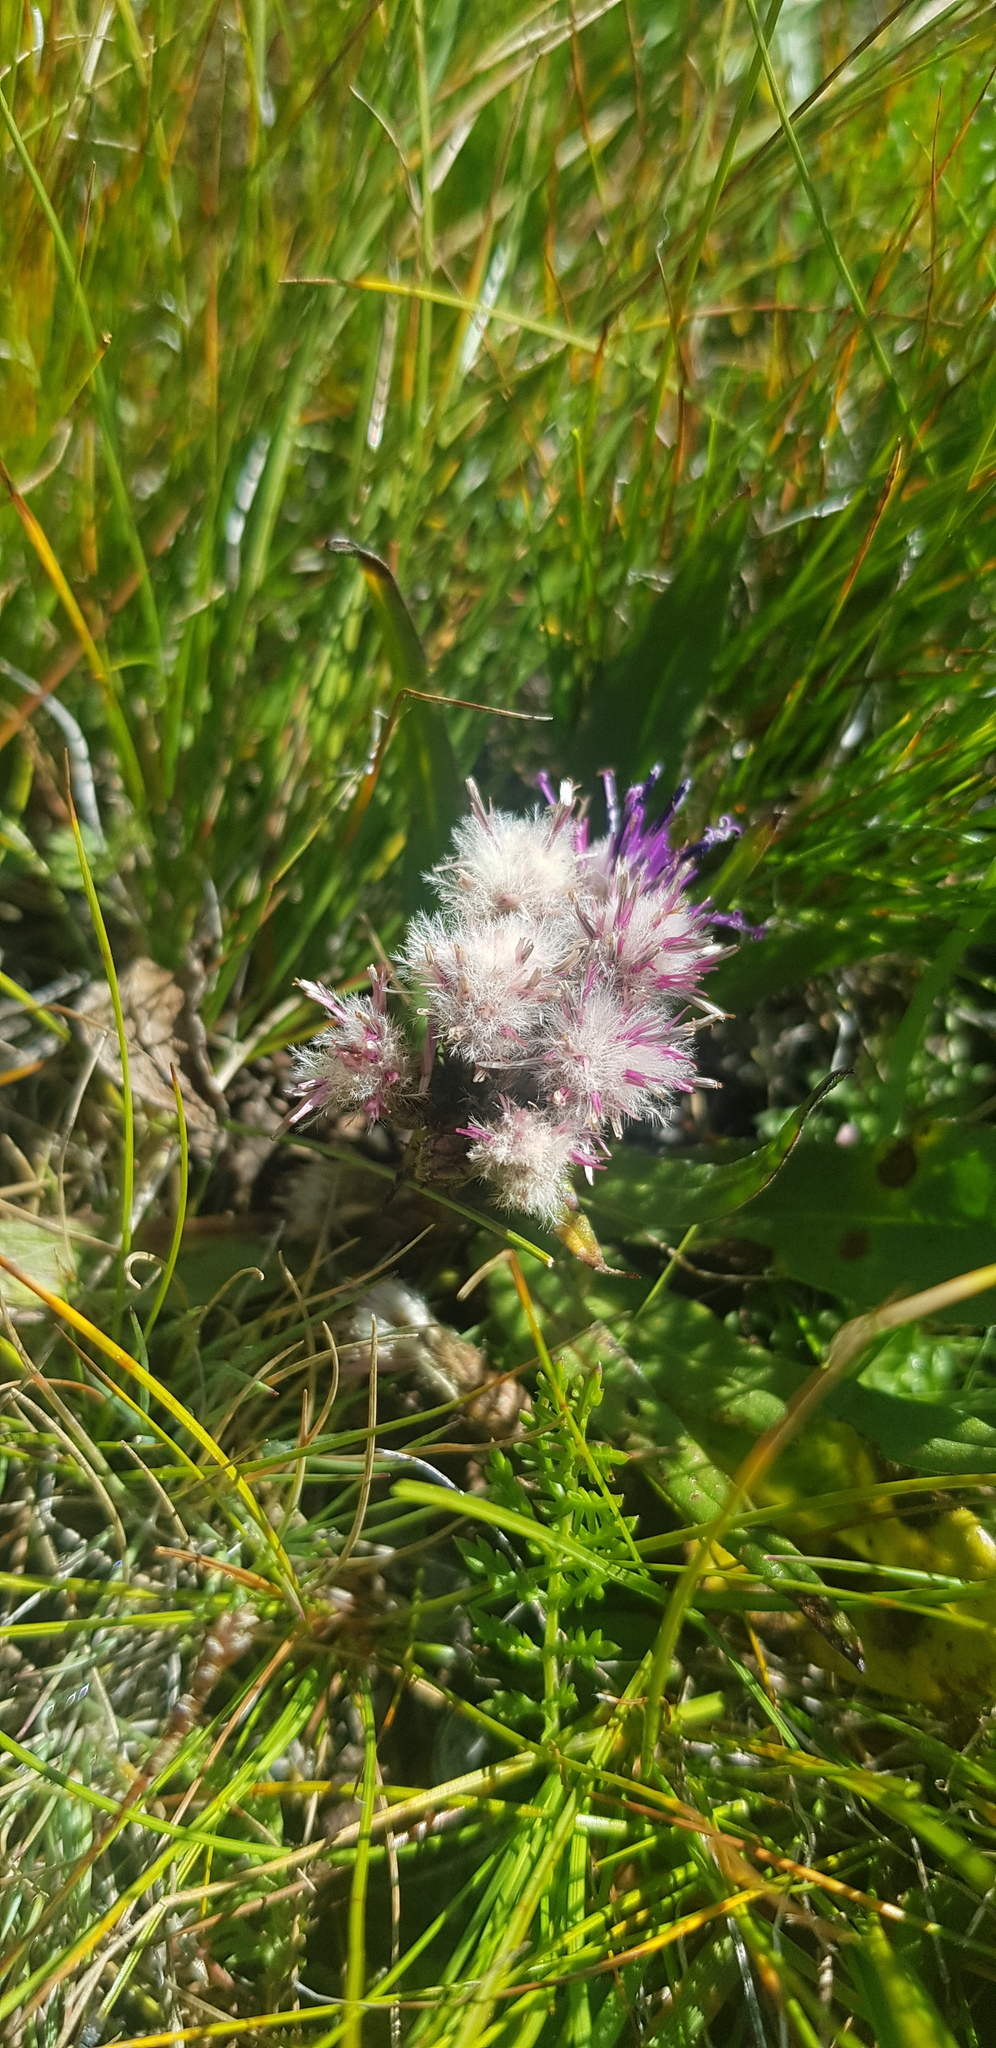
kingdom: Plantae
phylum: Tracheophyta
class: Magnoliopsida
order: Asterales
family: Asteraceae
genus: Saussurea
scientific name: Saussurea alpina
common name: Alpine saw-wort
